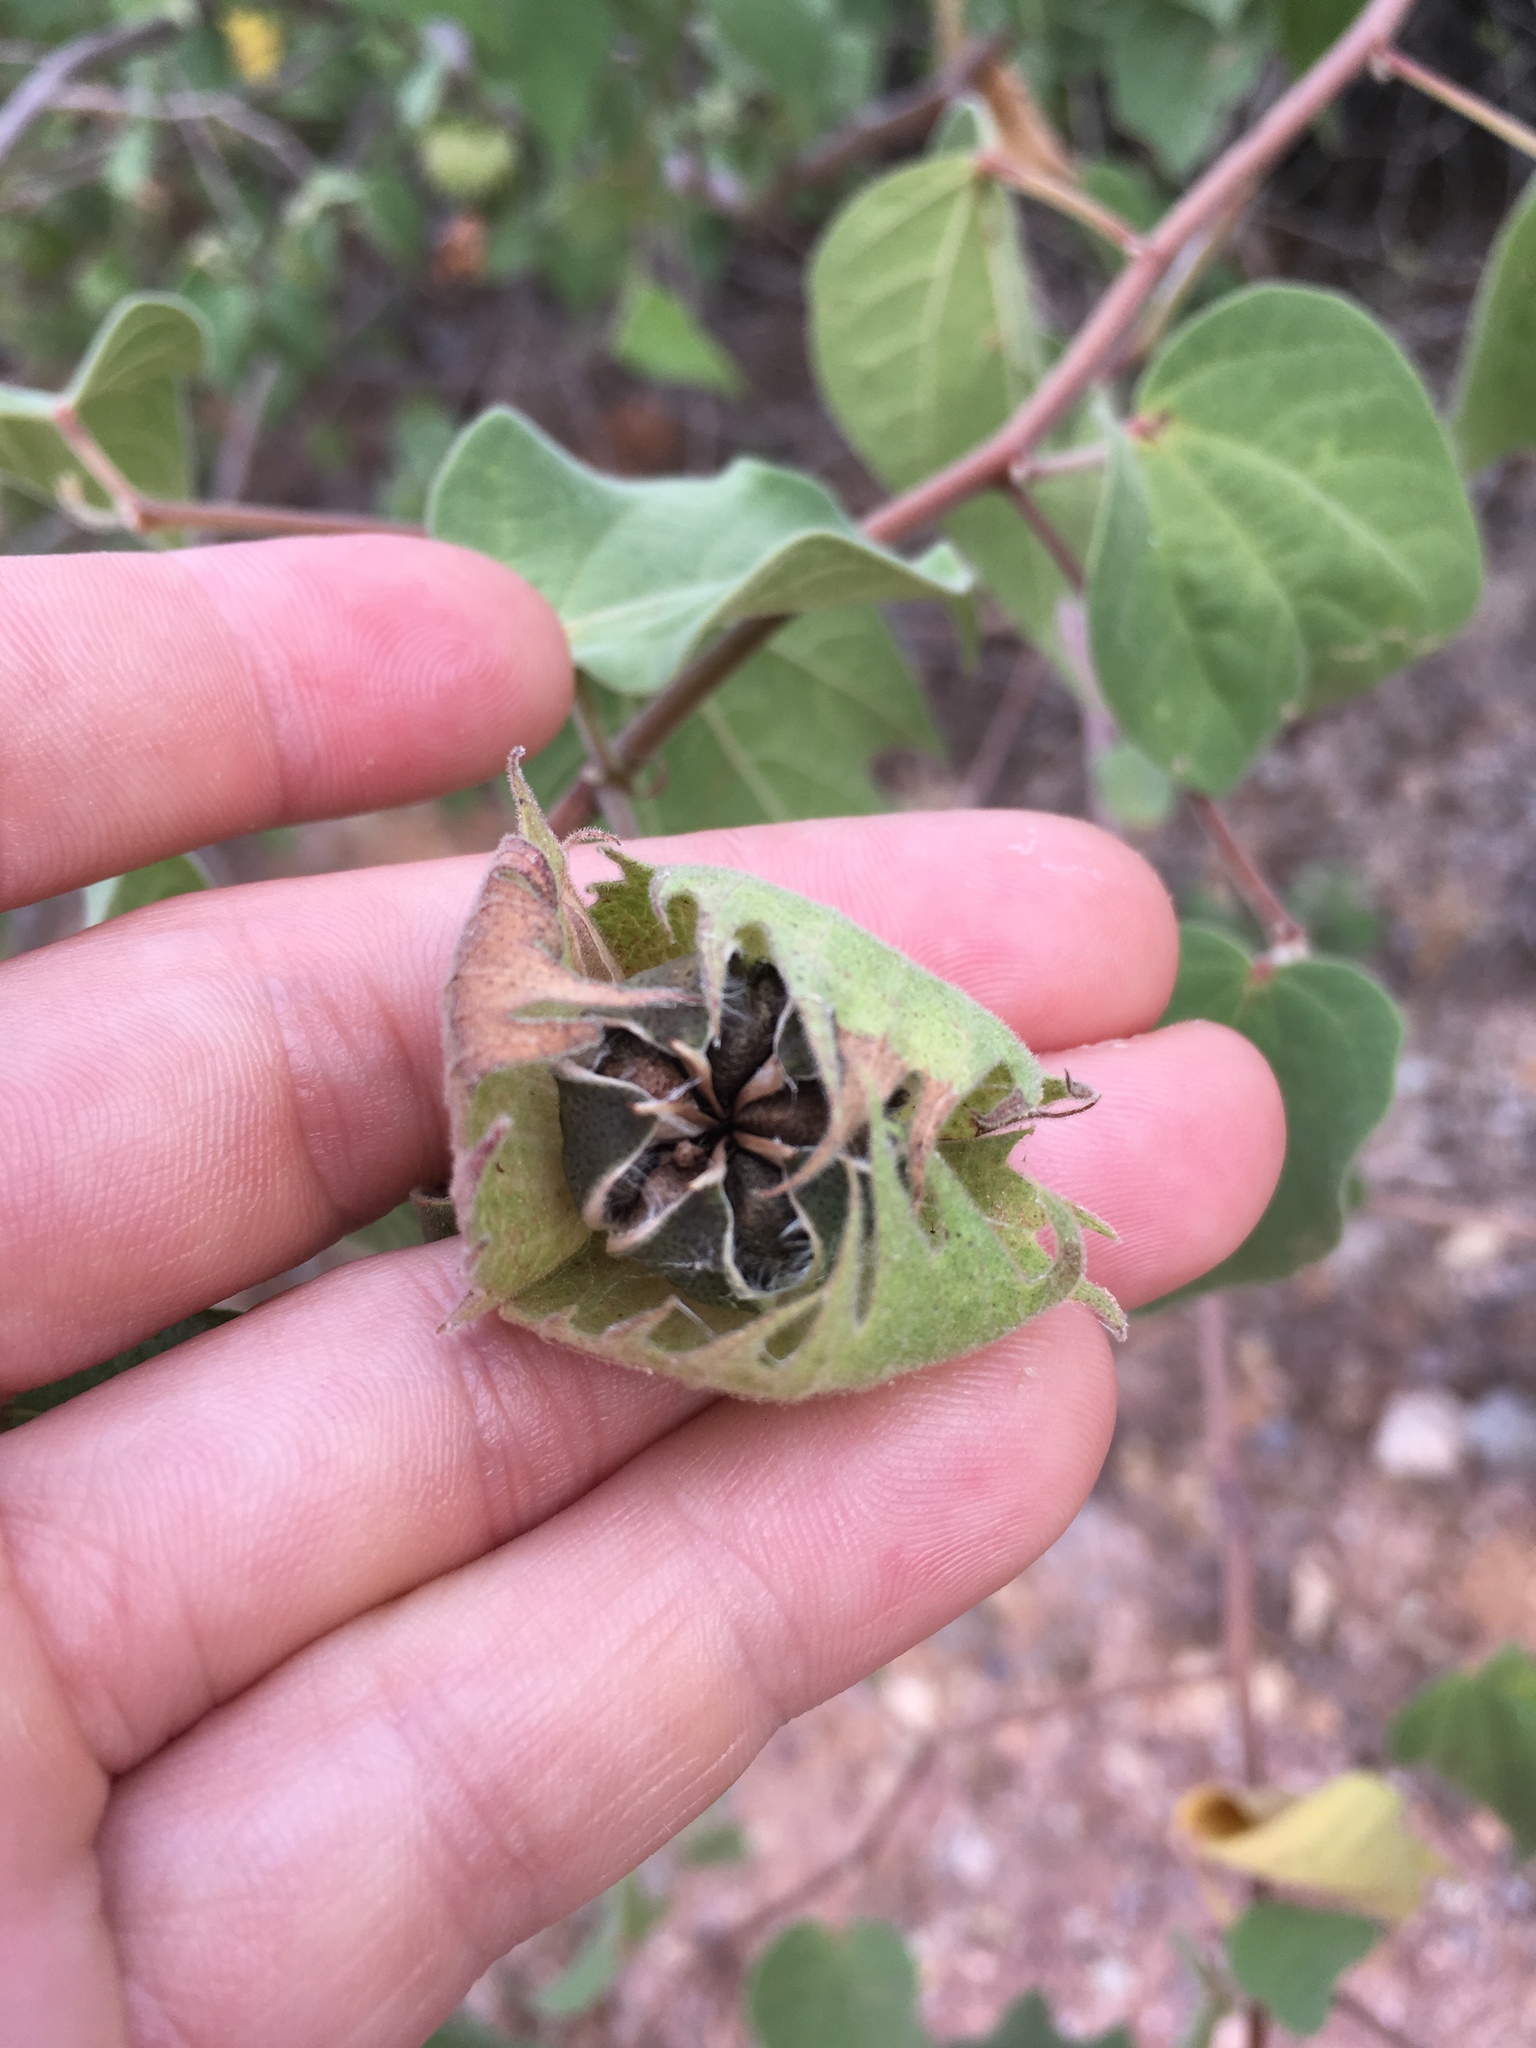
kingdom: Plantae
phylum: Tracheophyta
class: Magnoliopsida
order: Malvales
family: Malvaceae
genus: Gossypium
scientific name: Gossypium klotzschianum
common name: Galapagos cotton
